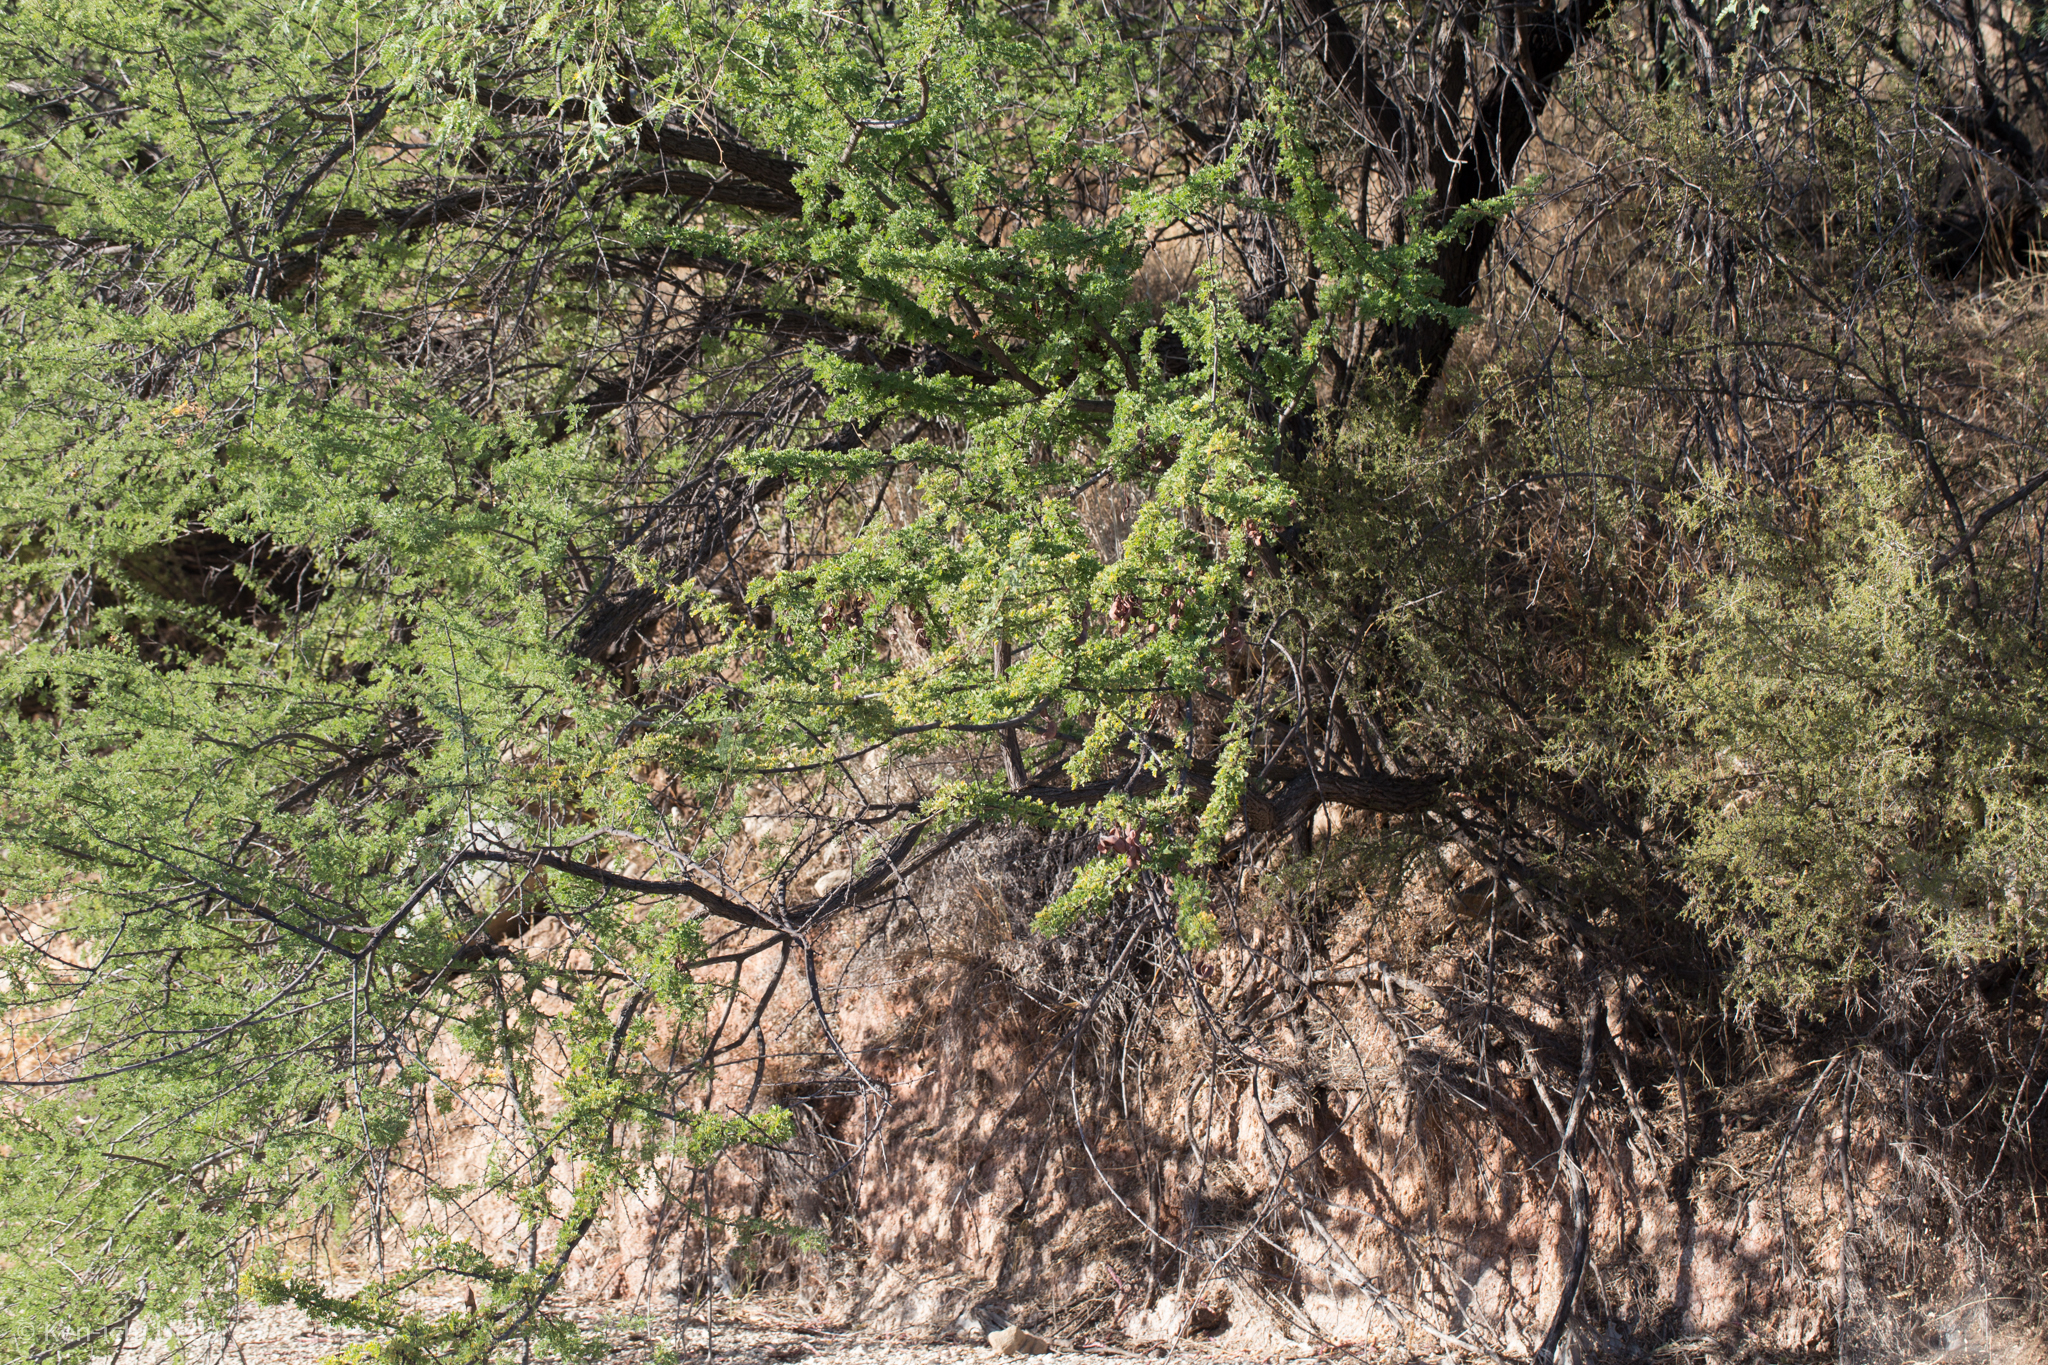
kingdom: Plantae
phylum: Tracheophyta
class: Magnoliopsida
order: Fabales
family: Fabaceae
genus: Senegalia
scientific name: Senegalia greggii
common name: Texas-mimosa
